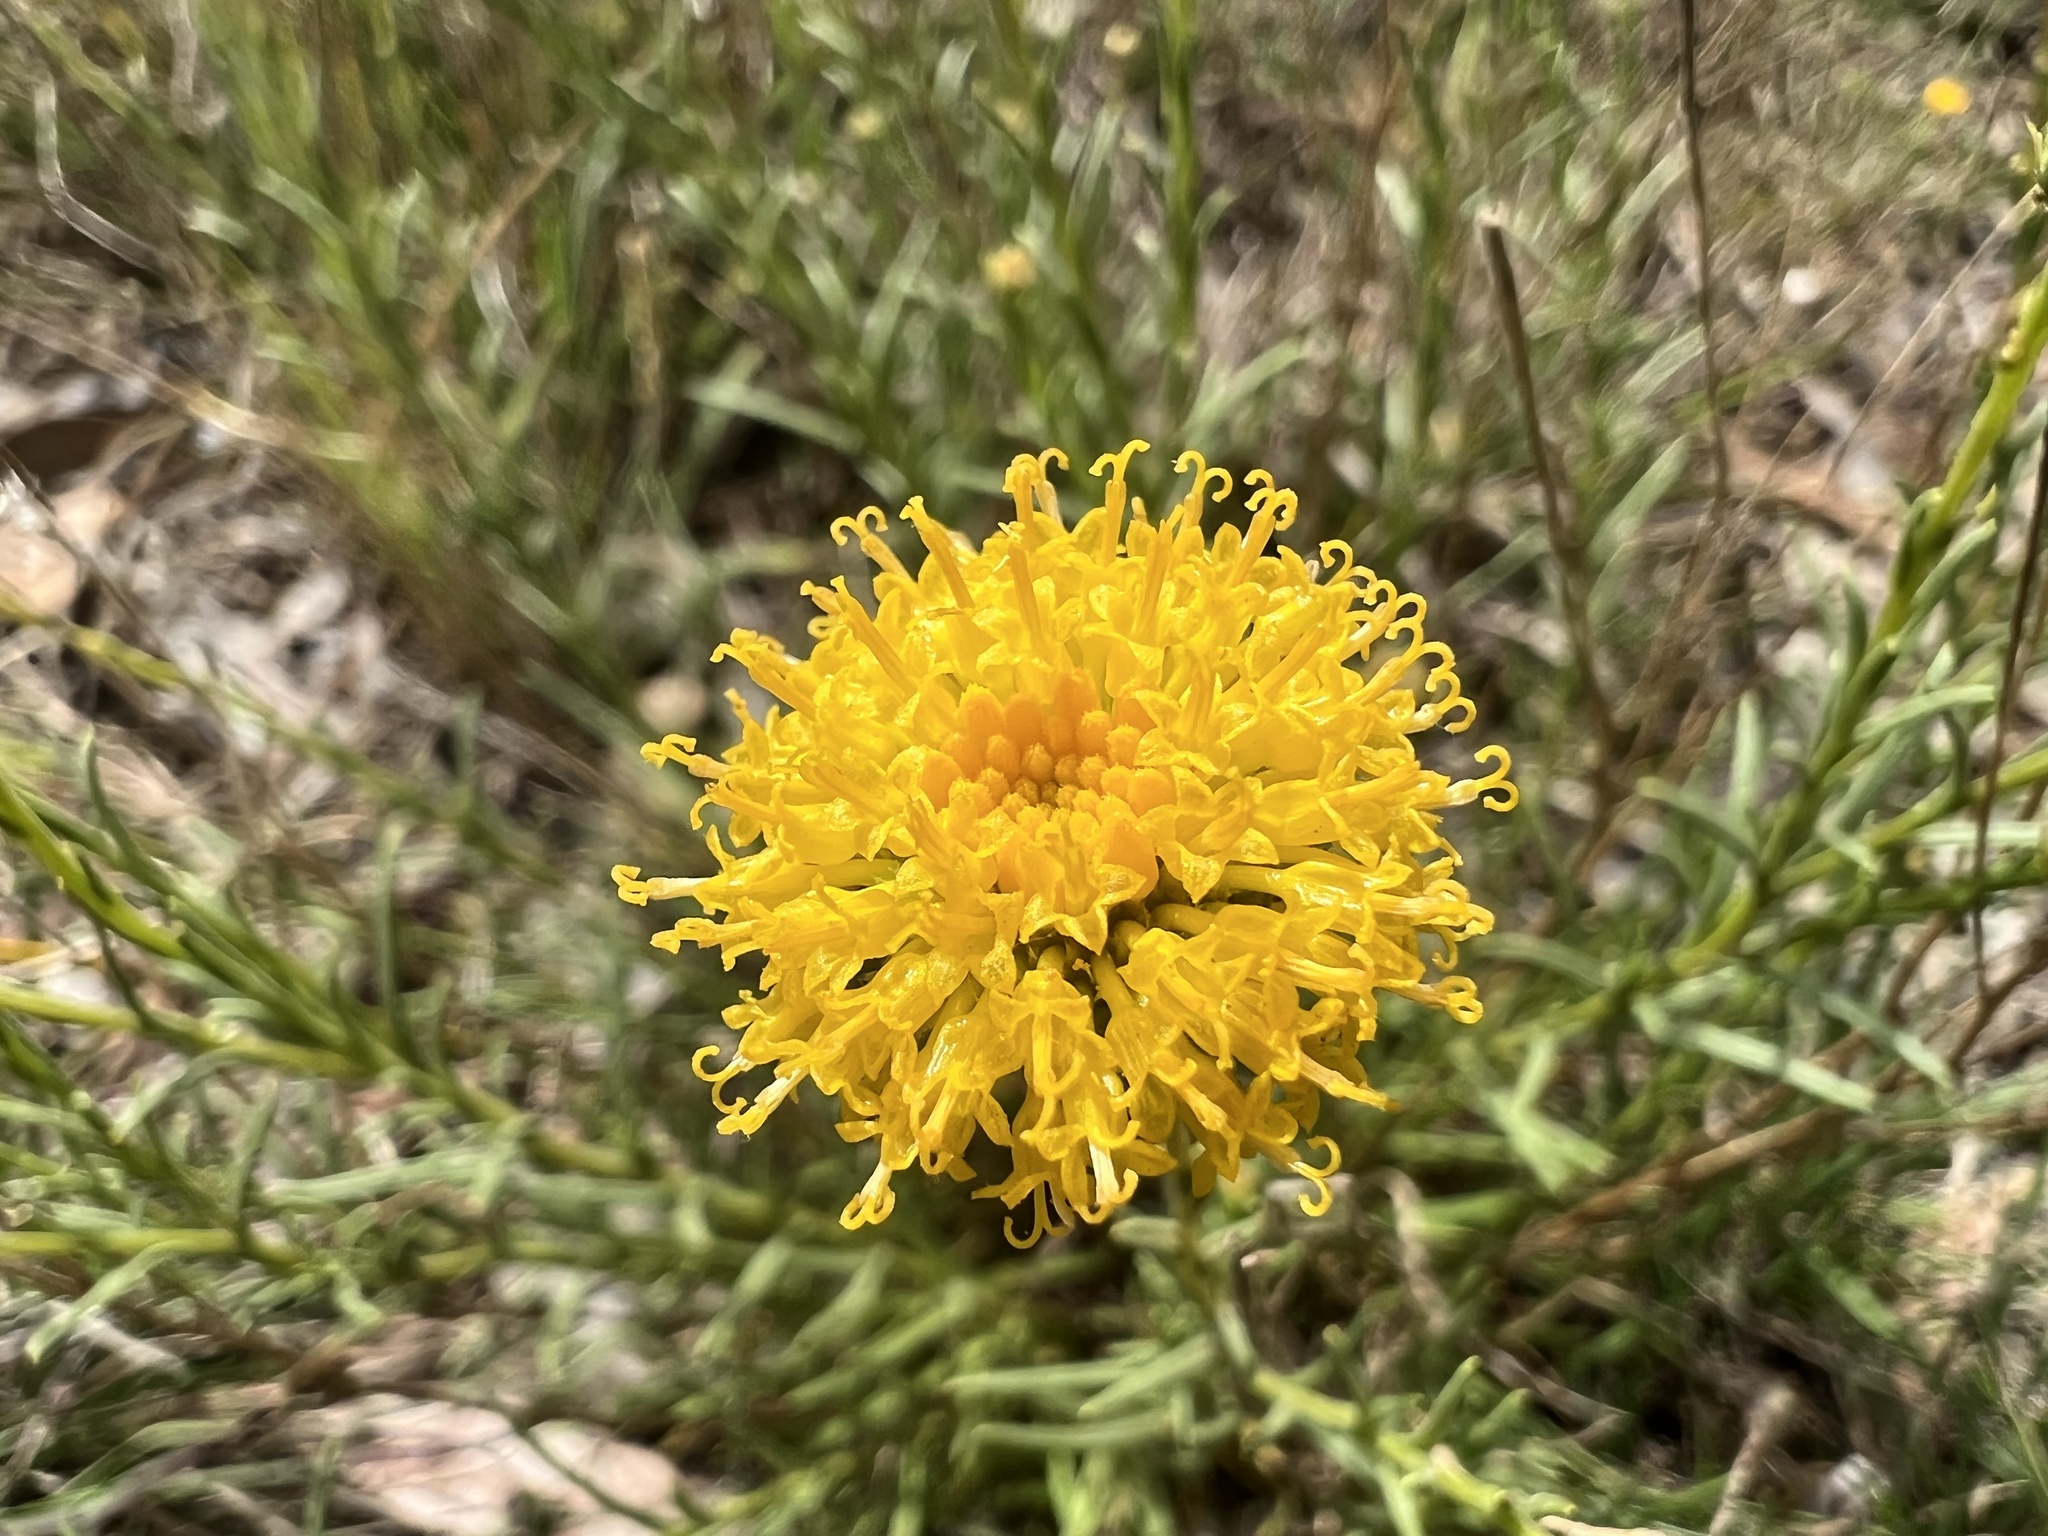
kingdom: Plantae
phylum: Tracheophyta
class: Magnoliopsida
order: Asterales
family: Asteraceae
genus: Rutidosis
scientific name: Rutidosis leptorrhynchoides
